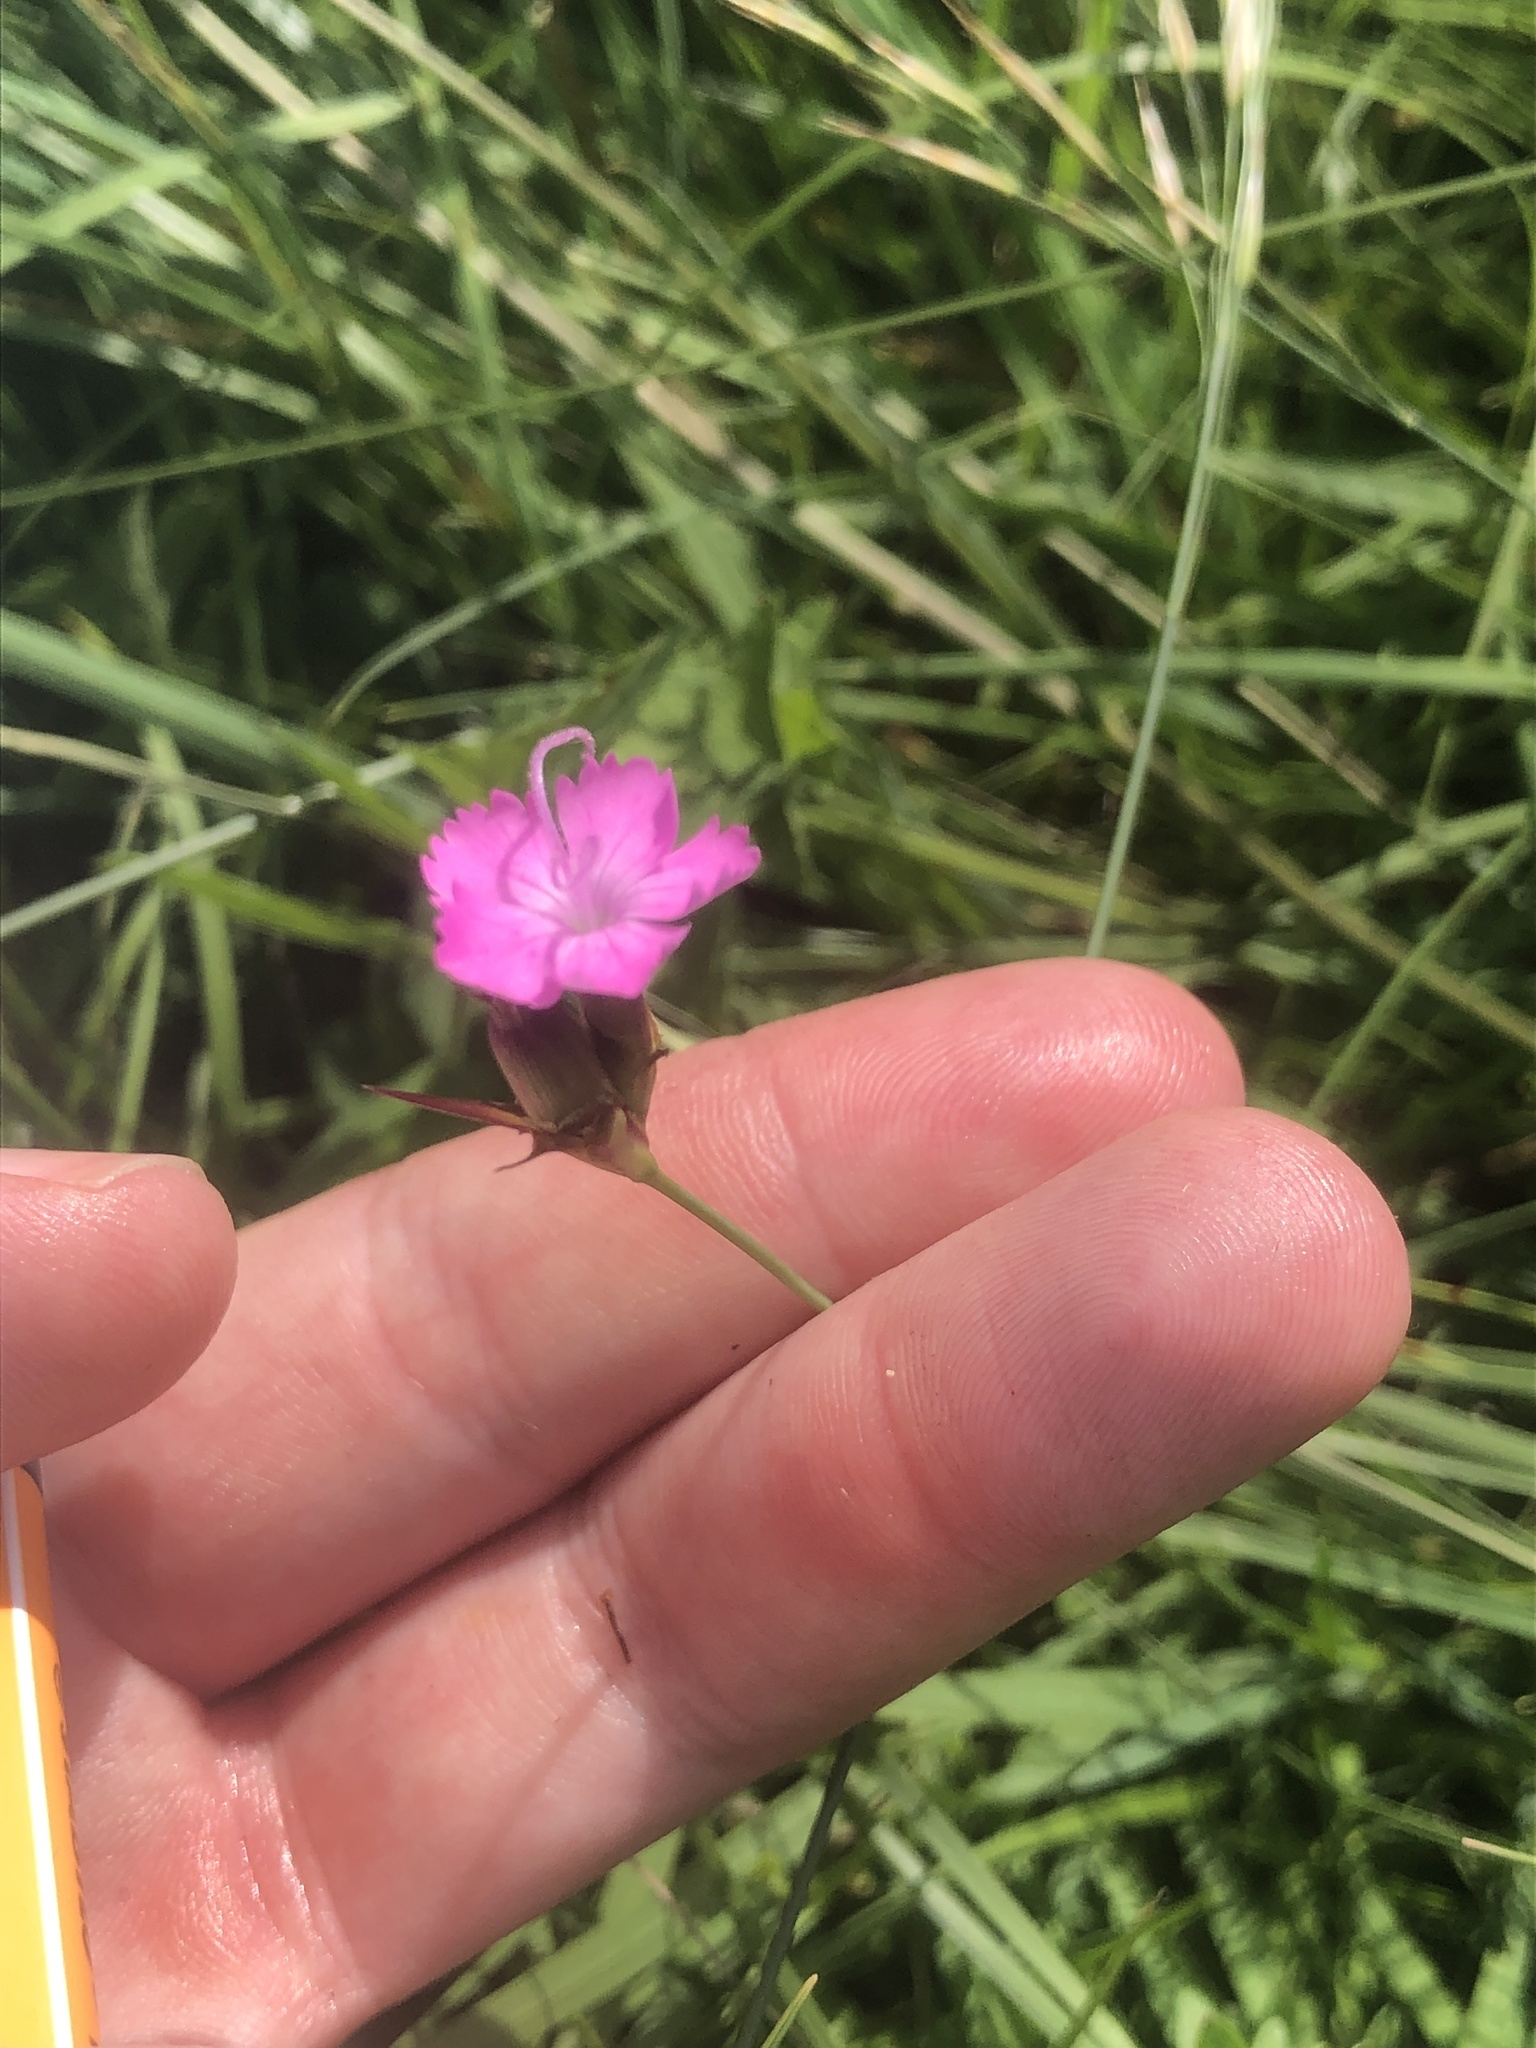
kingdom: Plantae
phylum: Tracheophyta
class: Magnoliopsida
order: Caryophyllales
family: Caryophyllaceae
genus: Dianthus
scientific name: Dianthus carthusianorum
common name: Carthusian pink
